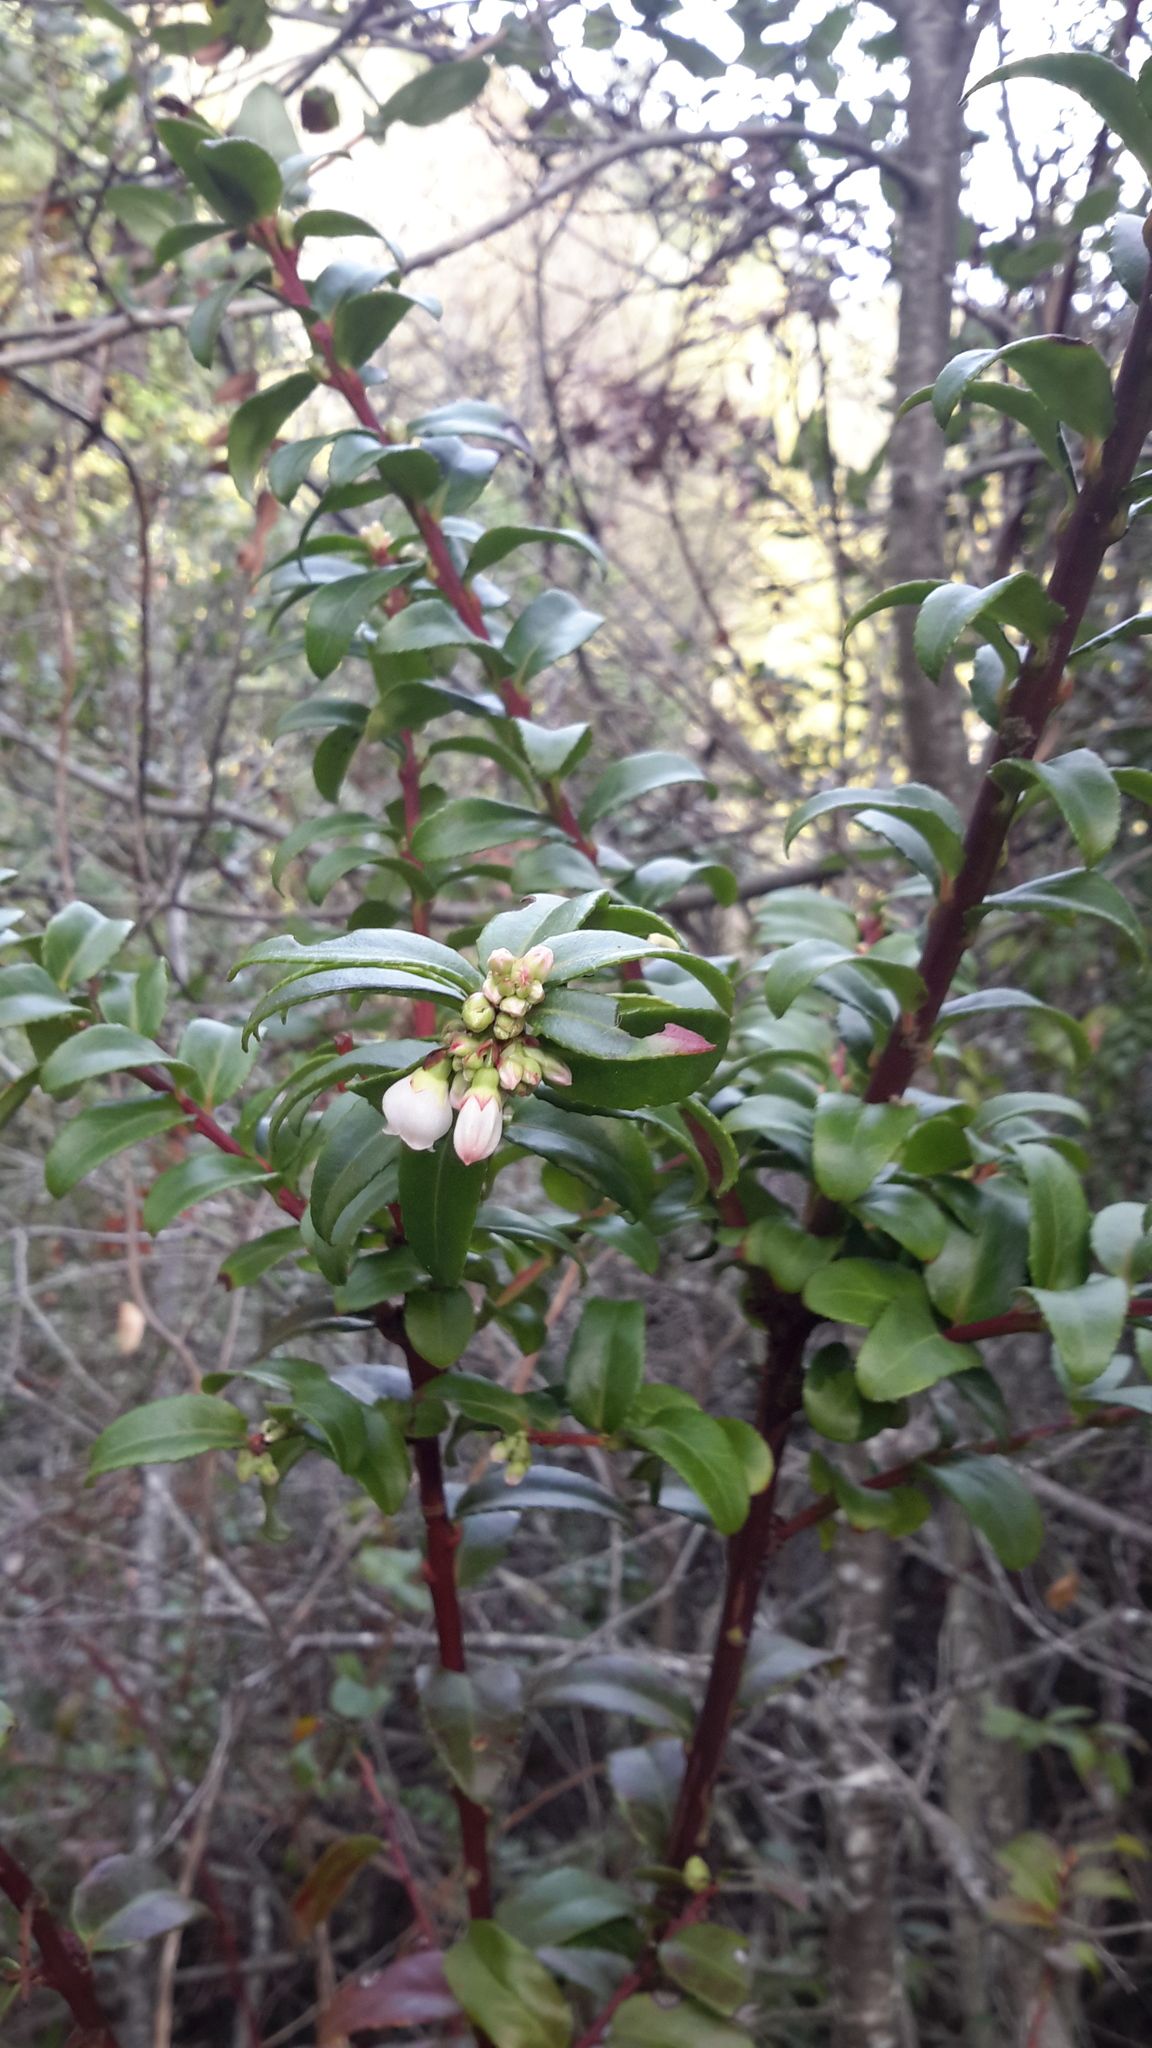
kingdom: Plantae
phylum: Tracheophyta
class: Magnoliopsida
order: Ericales
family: Ericaceae
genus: Vaccinium
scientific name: Vaccinium ovatum
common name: California-huckleberry
